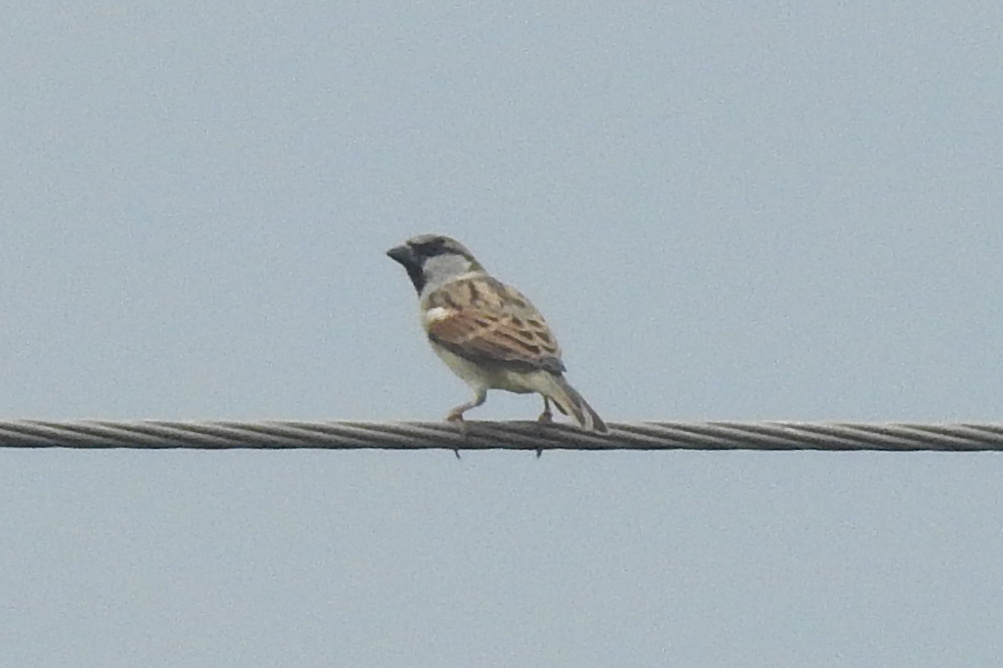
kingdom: Animalia
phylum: Chordata
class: Aves
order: Passeriformes
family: Passeridae
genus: Passer
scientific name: Passer domesticus
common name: House sparrow
